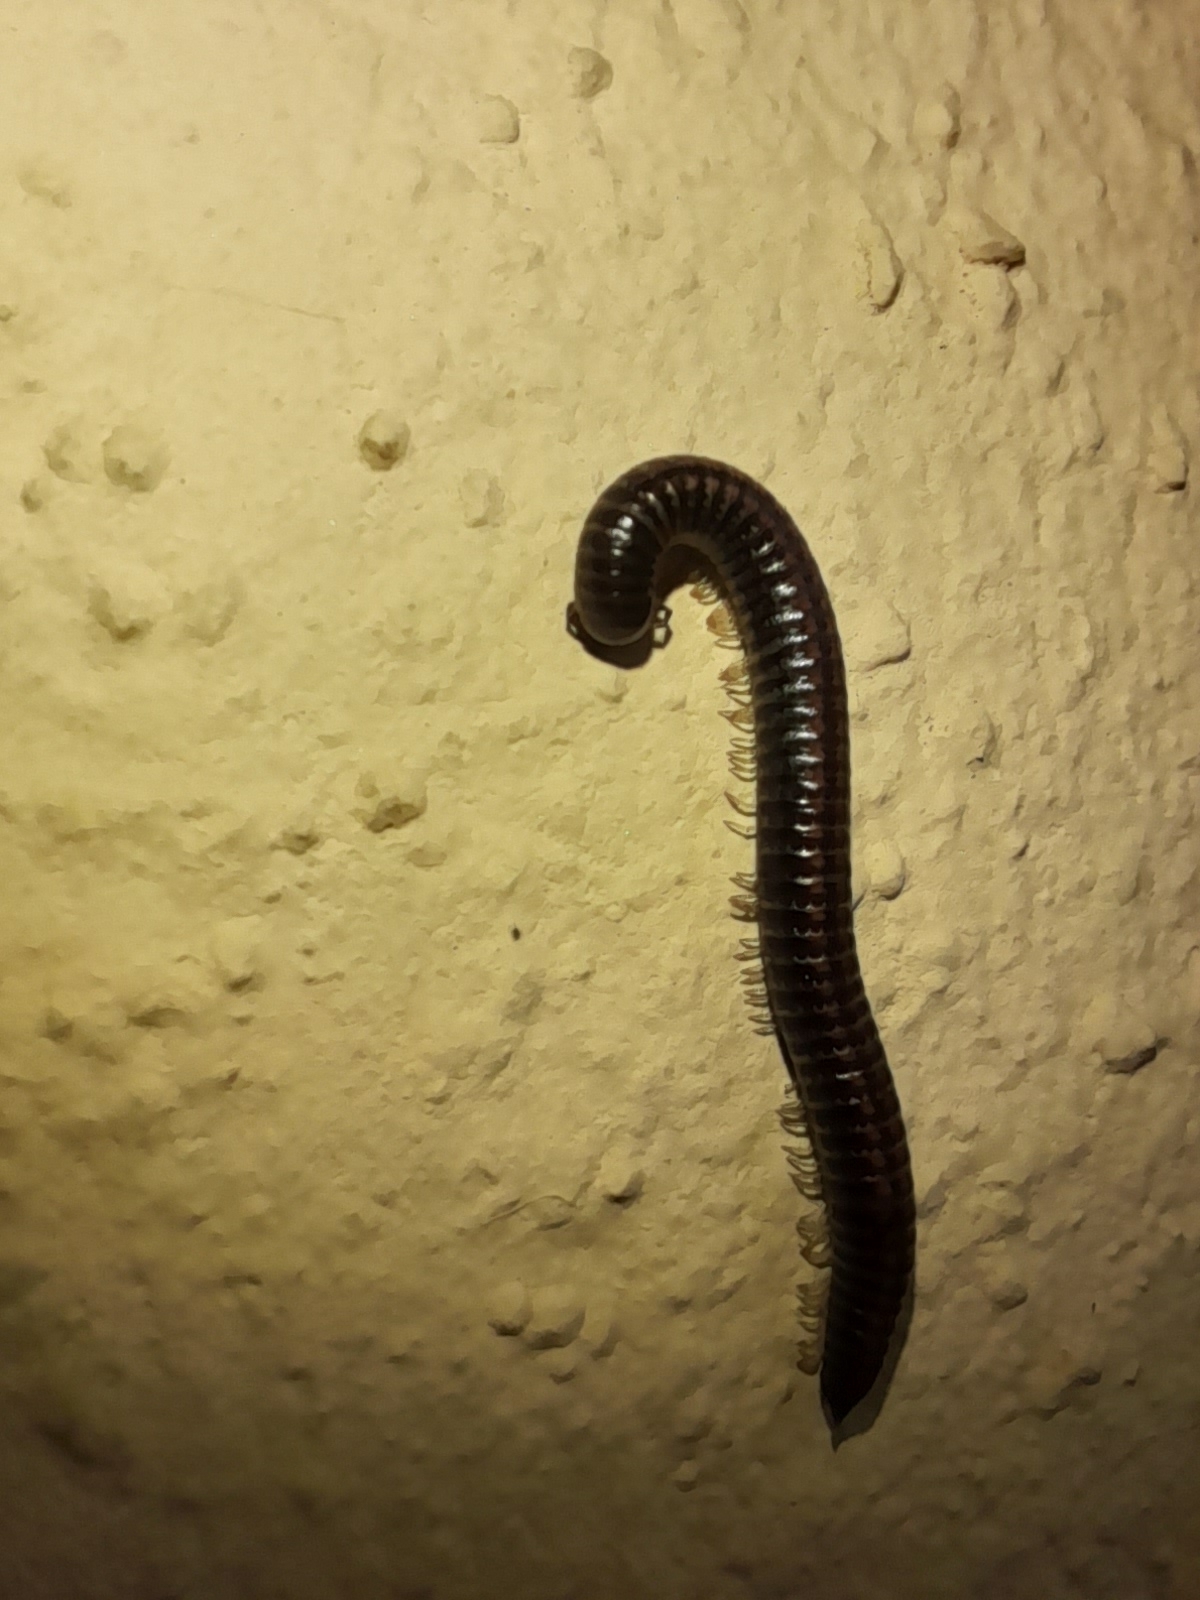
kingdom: Animalia
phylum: Arthropoda
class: Diplopoda
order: Julida
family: Julidae
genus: Ommatoiulus
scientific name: Ommatoiulus sabulosus
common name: Striped millipede
